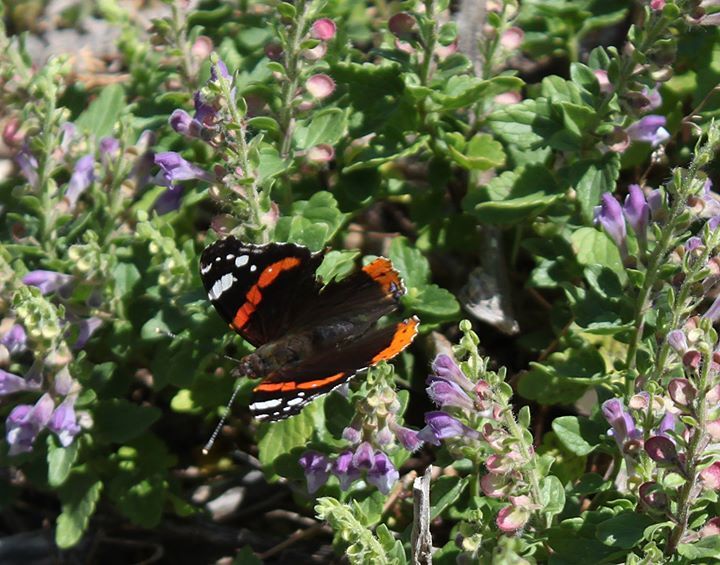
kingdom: Animalia
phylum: Arthropoda
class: Insecta
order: Lepidoptera
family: Nymphalidae
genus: Vanessa
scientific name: Vanessa atalanta
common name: Red admiral
